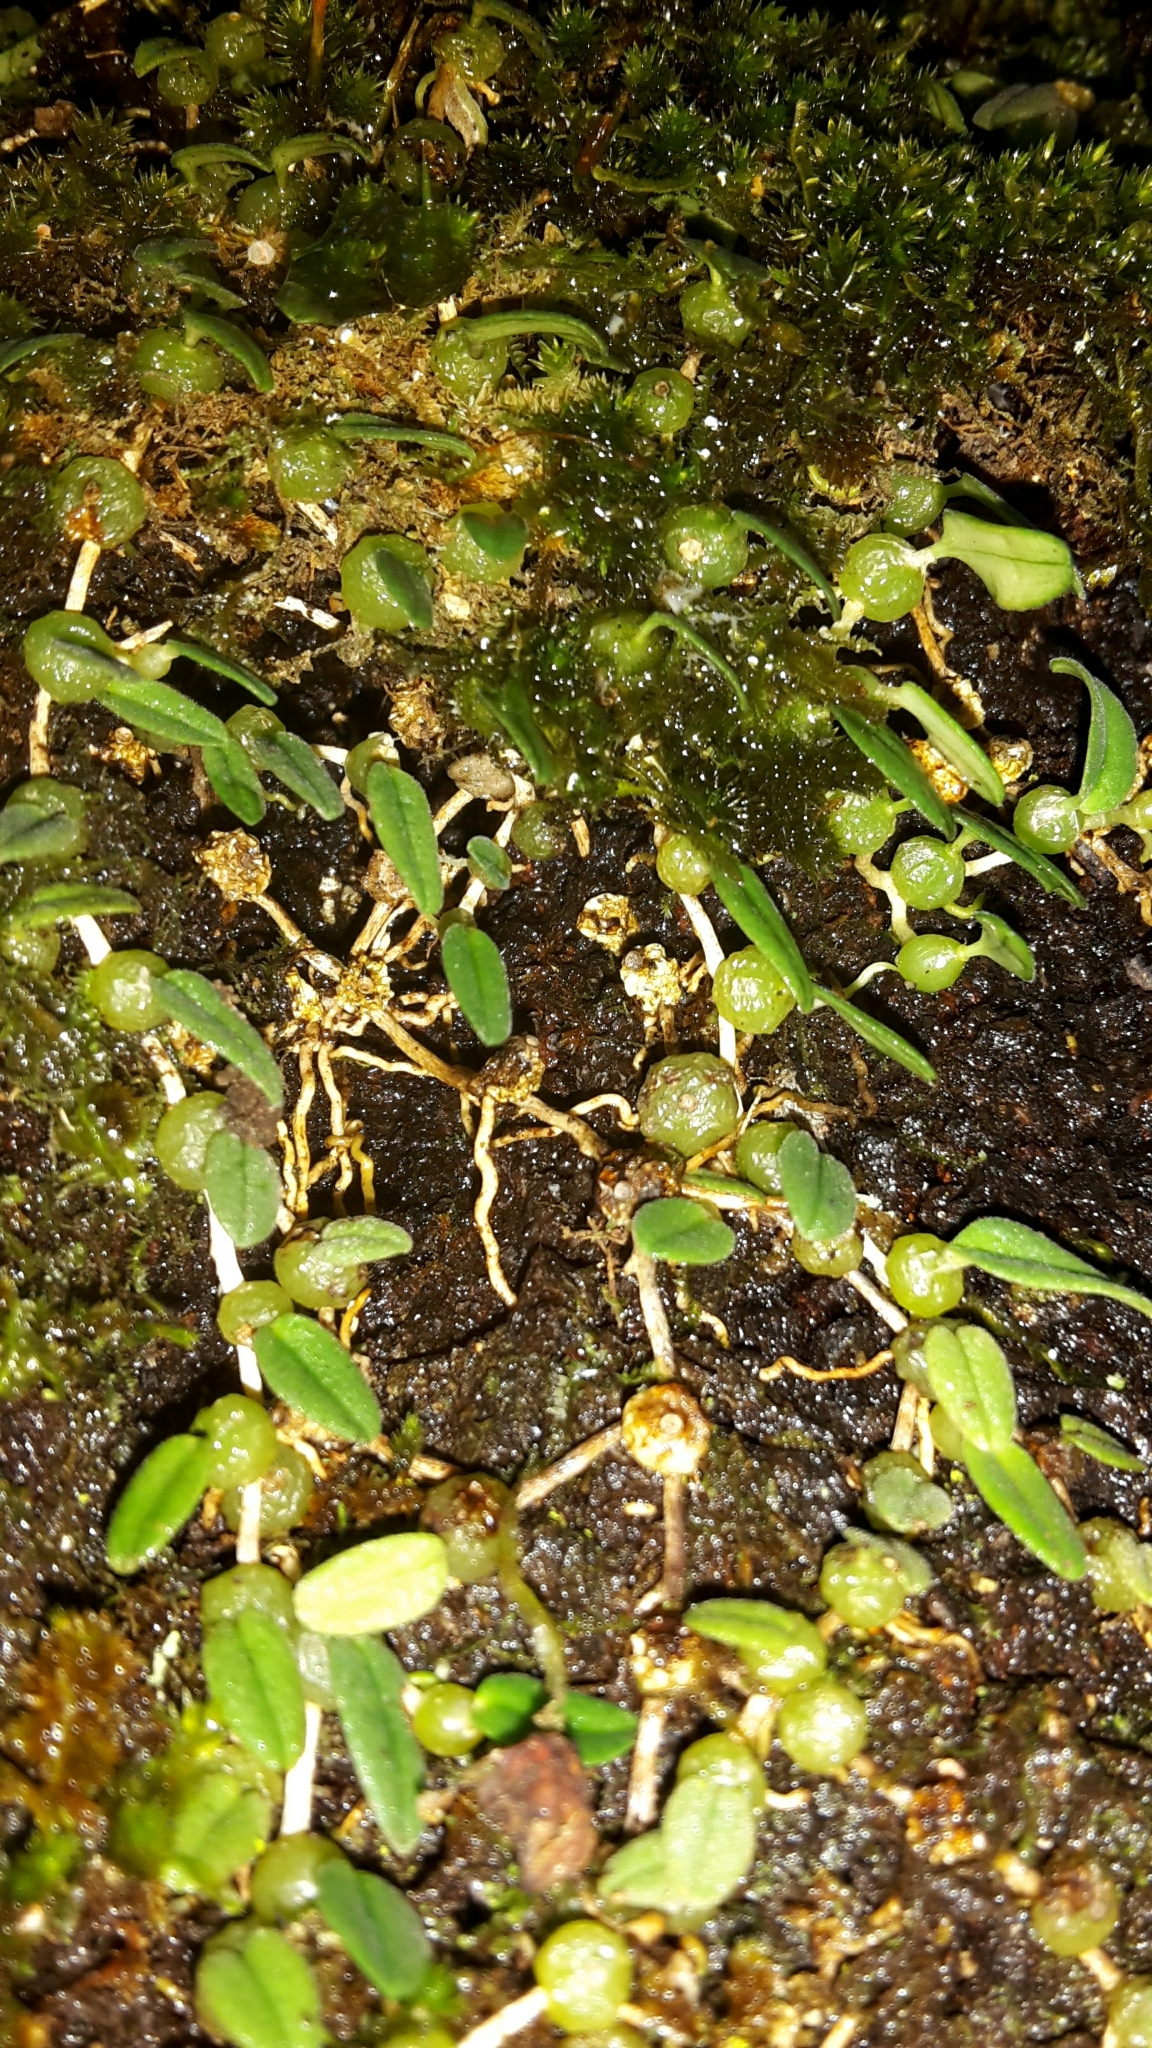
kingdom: Plantae
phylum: Tracheophyta
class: Liliopsida
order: Asparagales
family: Orchidaceae
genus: Bulbophyllum
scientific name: Bulbophyllum pygmaeum
